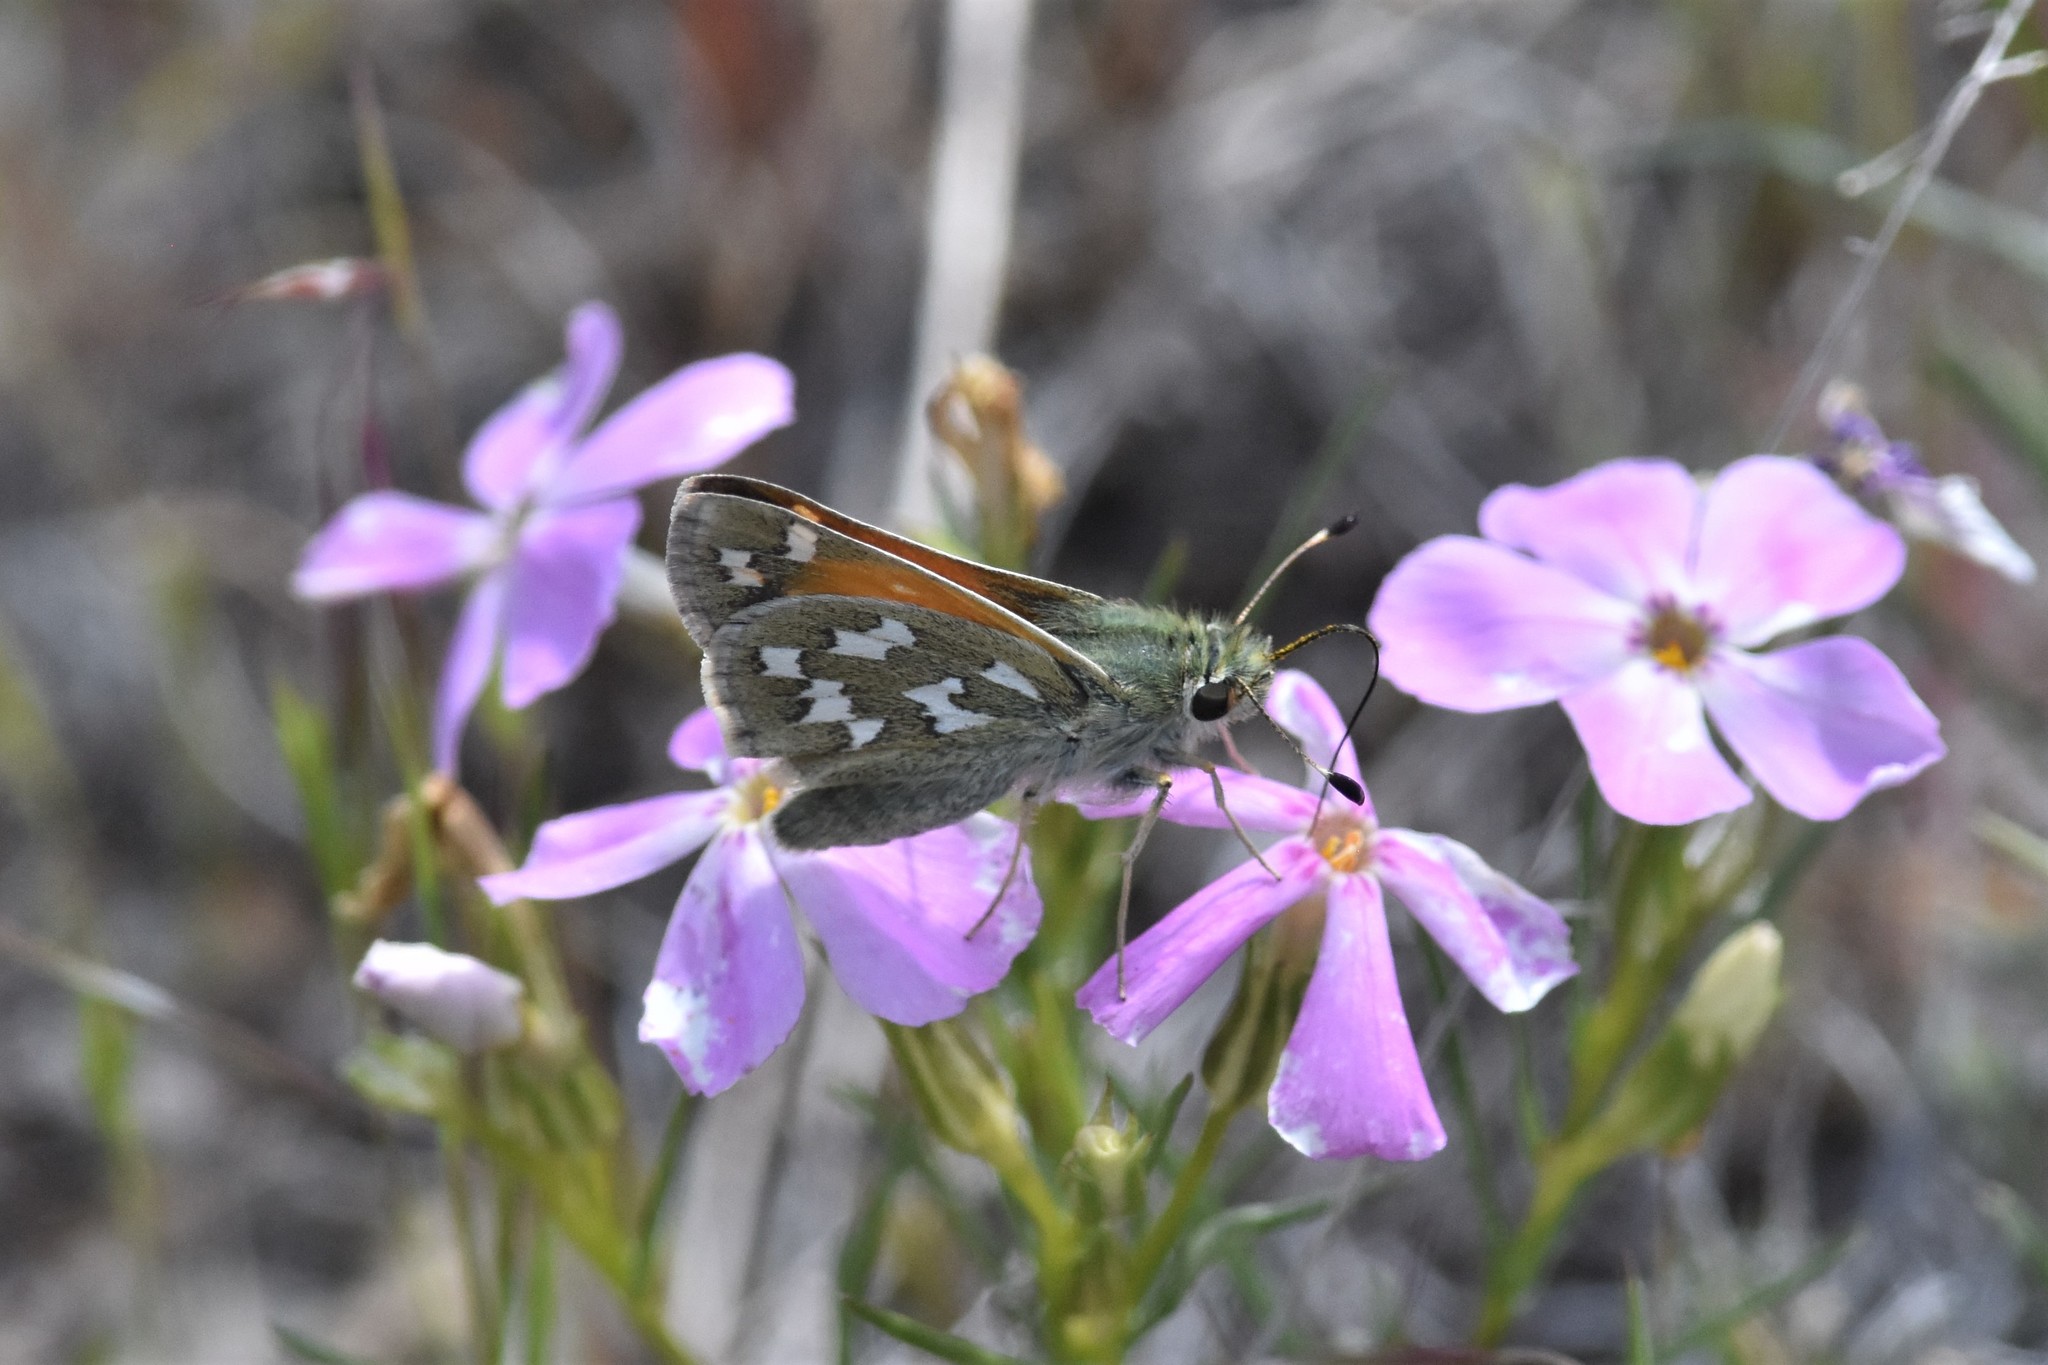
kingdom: Animalia
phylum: Arthropoda
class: Insecta
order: Lepidoptera
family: Hesperiidae
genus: Hesperia
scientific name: Hesperia juba
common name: Juba skipper
